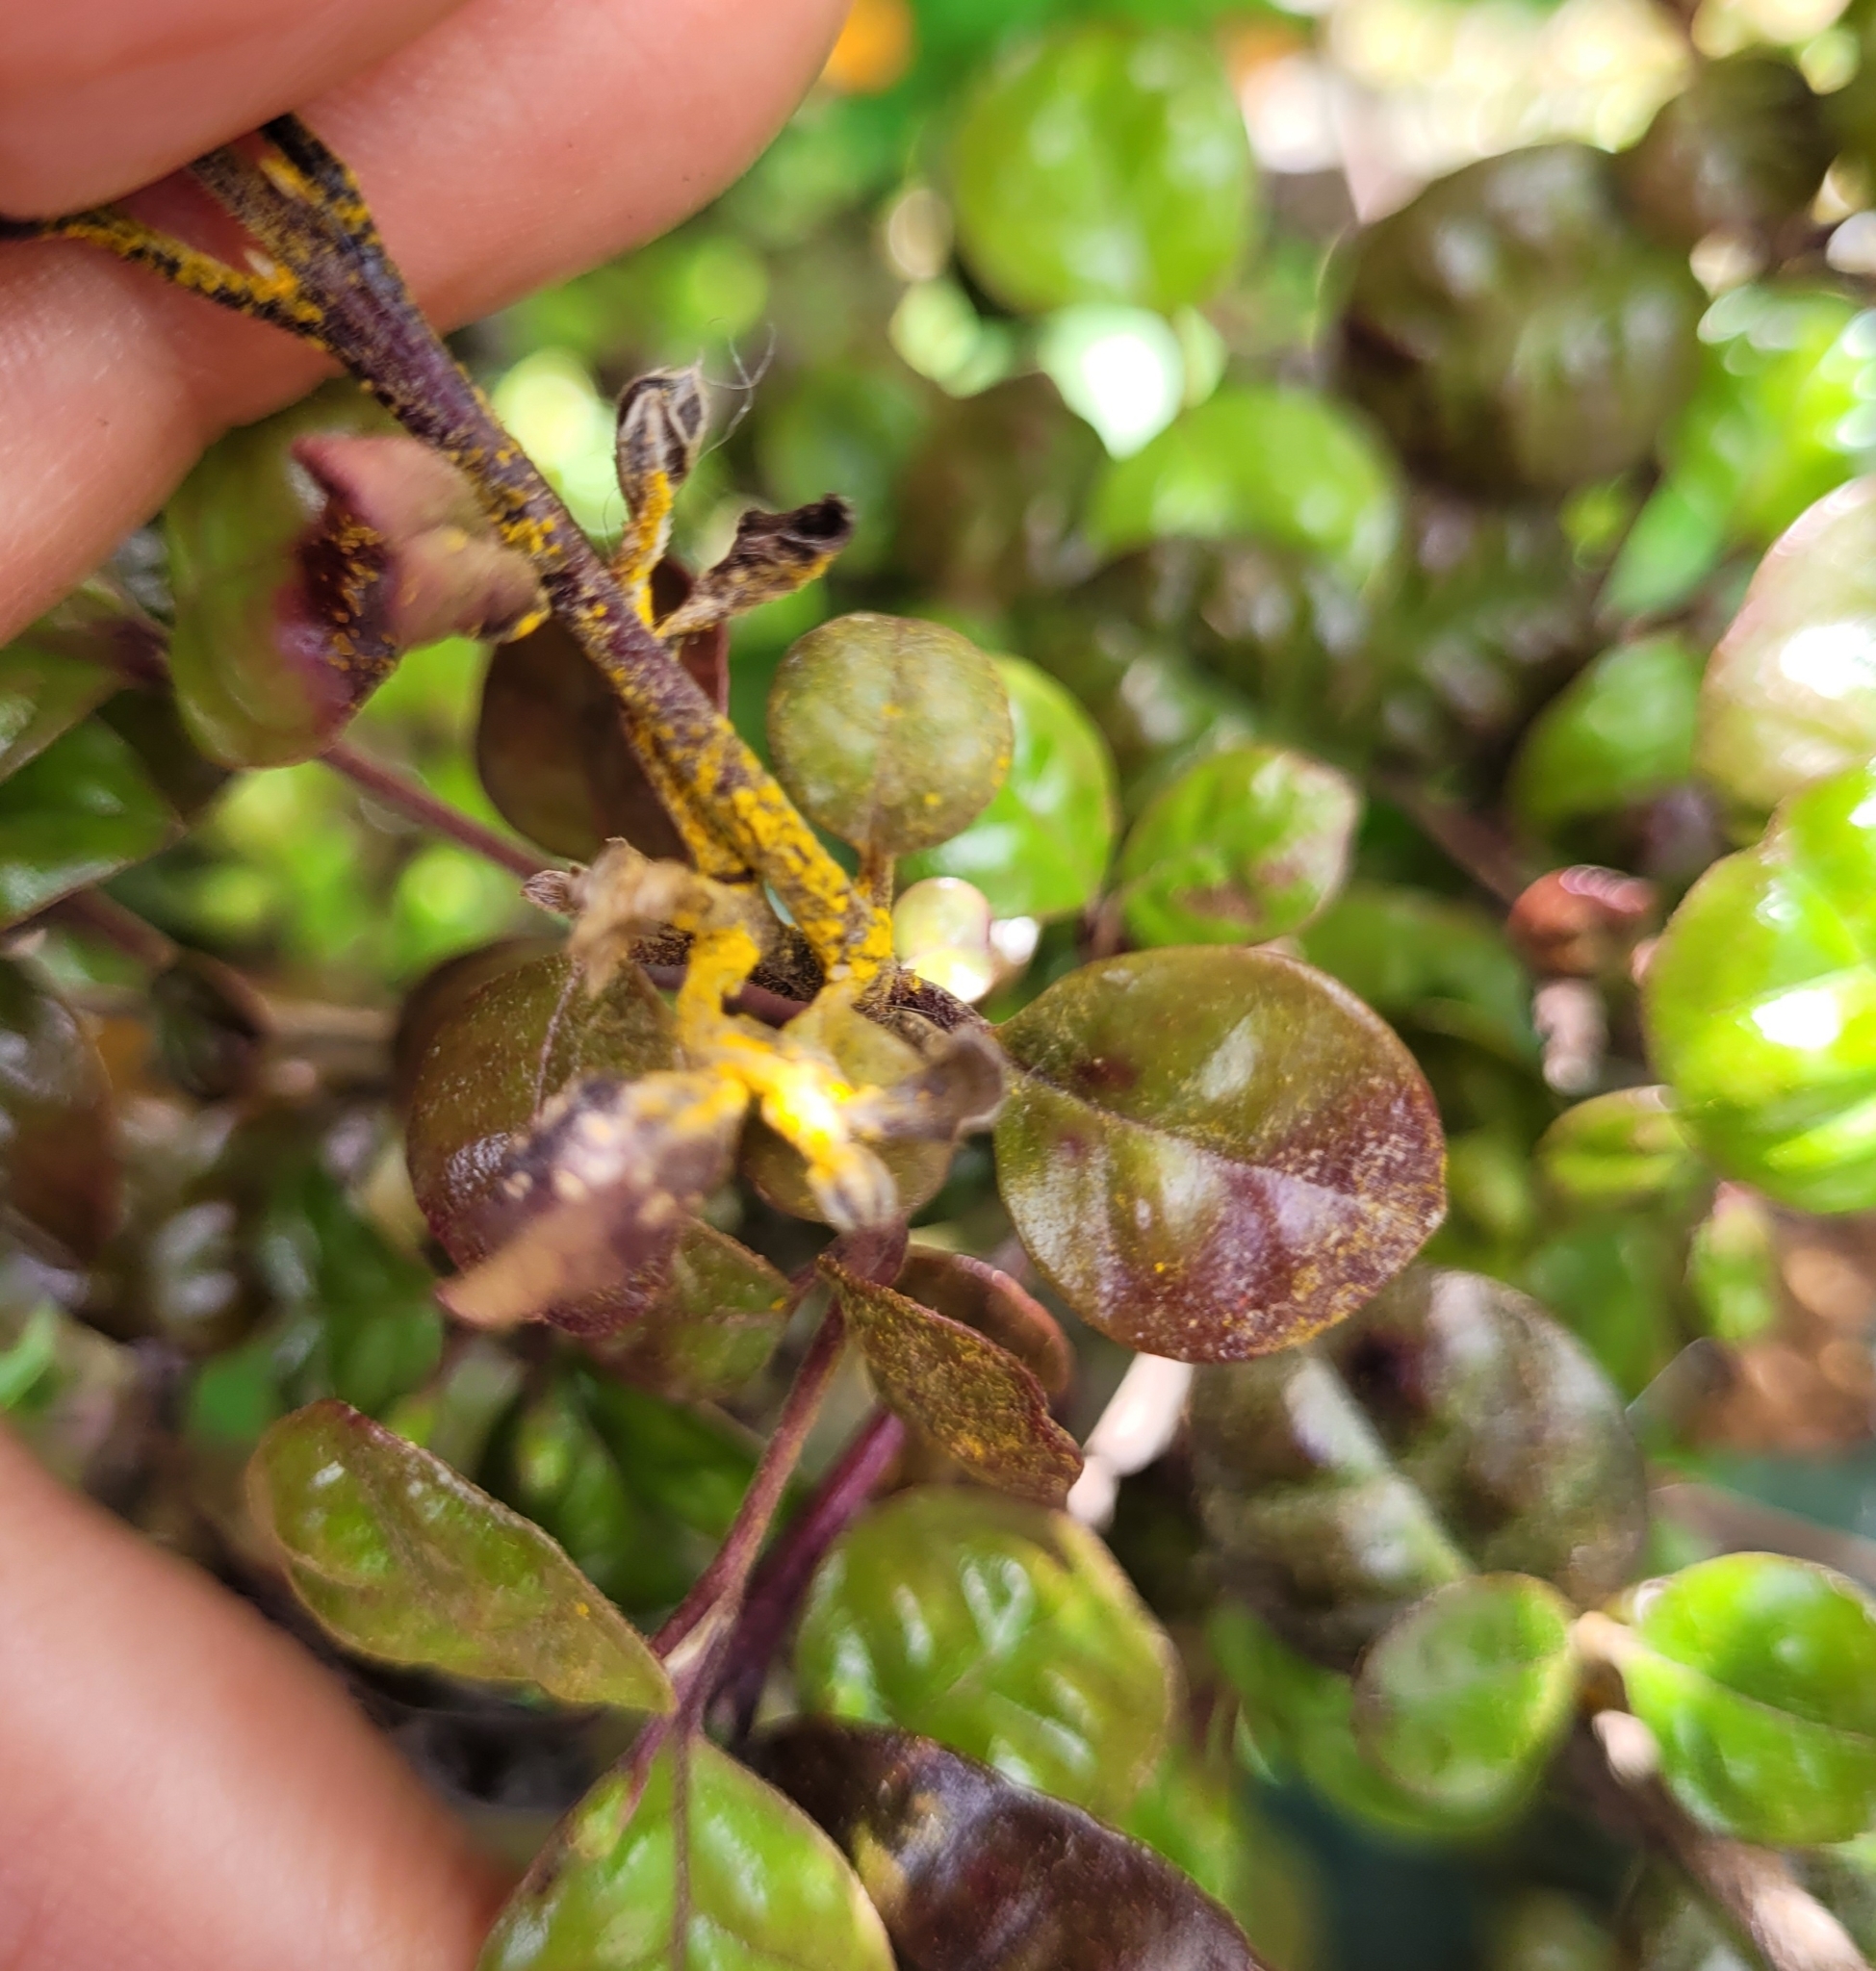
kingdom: Fungi
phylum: Basidiomycota
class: Pucciniomycetes
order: Pucciniales
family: Sphaerophragmiaceae
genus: Austropuccinia
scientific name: Austropuccinia psidii
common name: Myrtle rust
